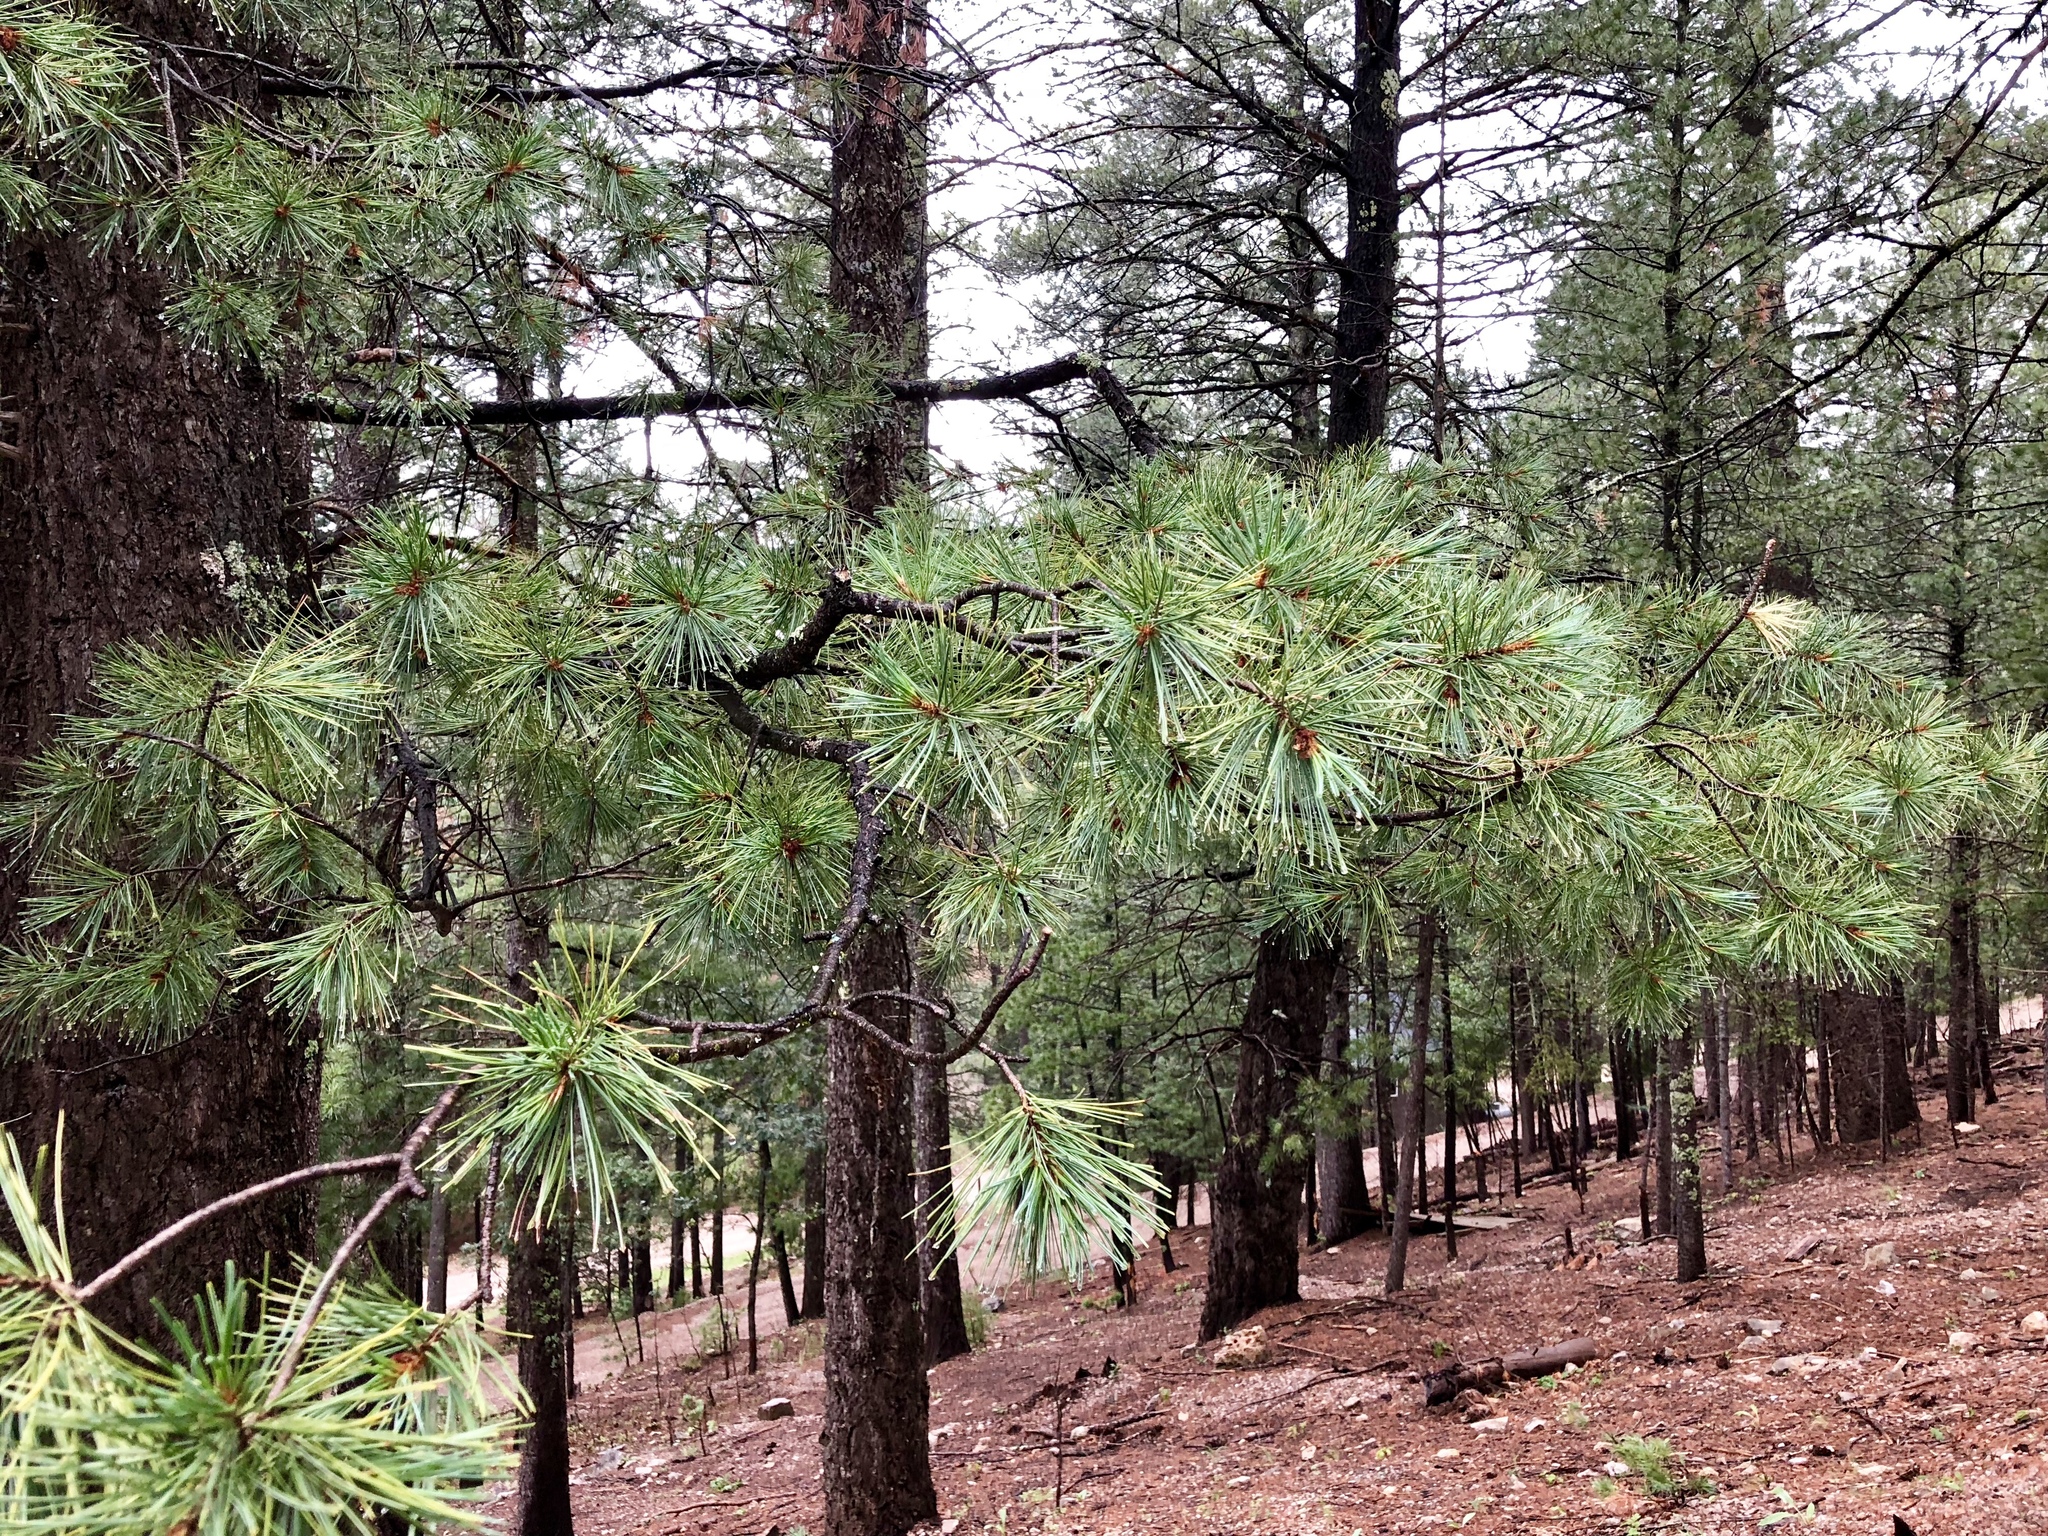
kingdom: Plantae
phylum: Tracheophyta
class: Pinopsida
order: Pinales
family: Pinaceae
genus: Pinus
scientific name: Pinus strobiformis
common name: Southwestern white pine
